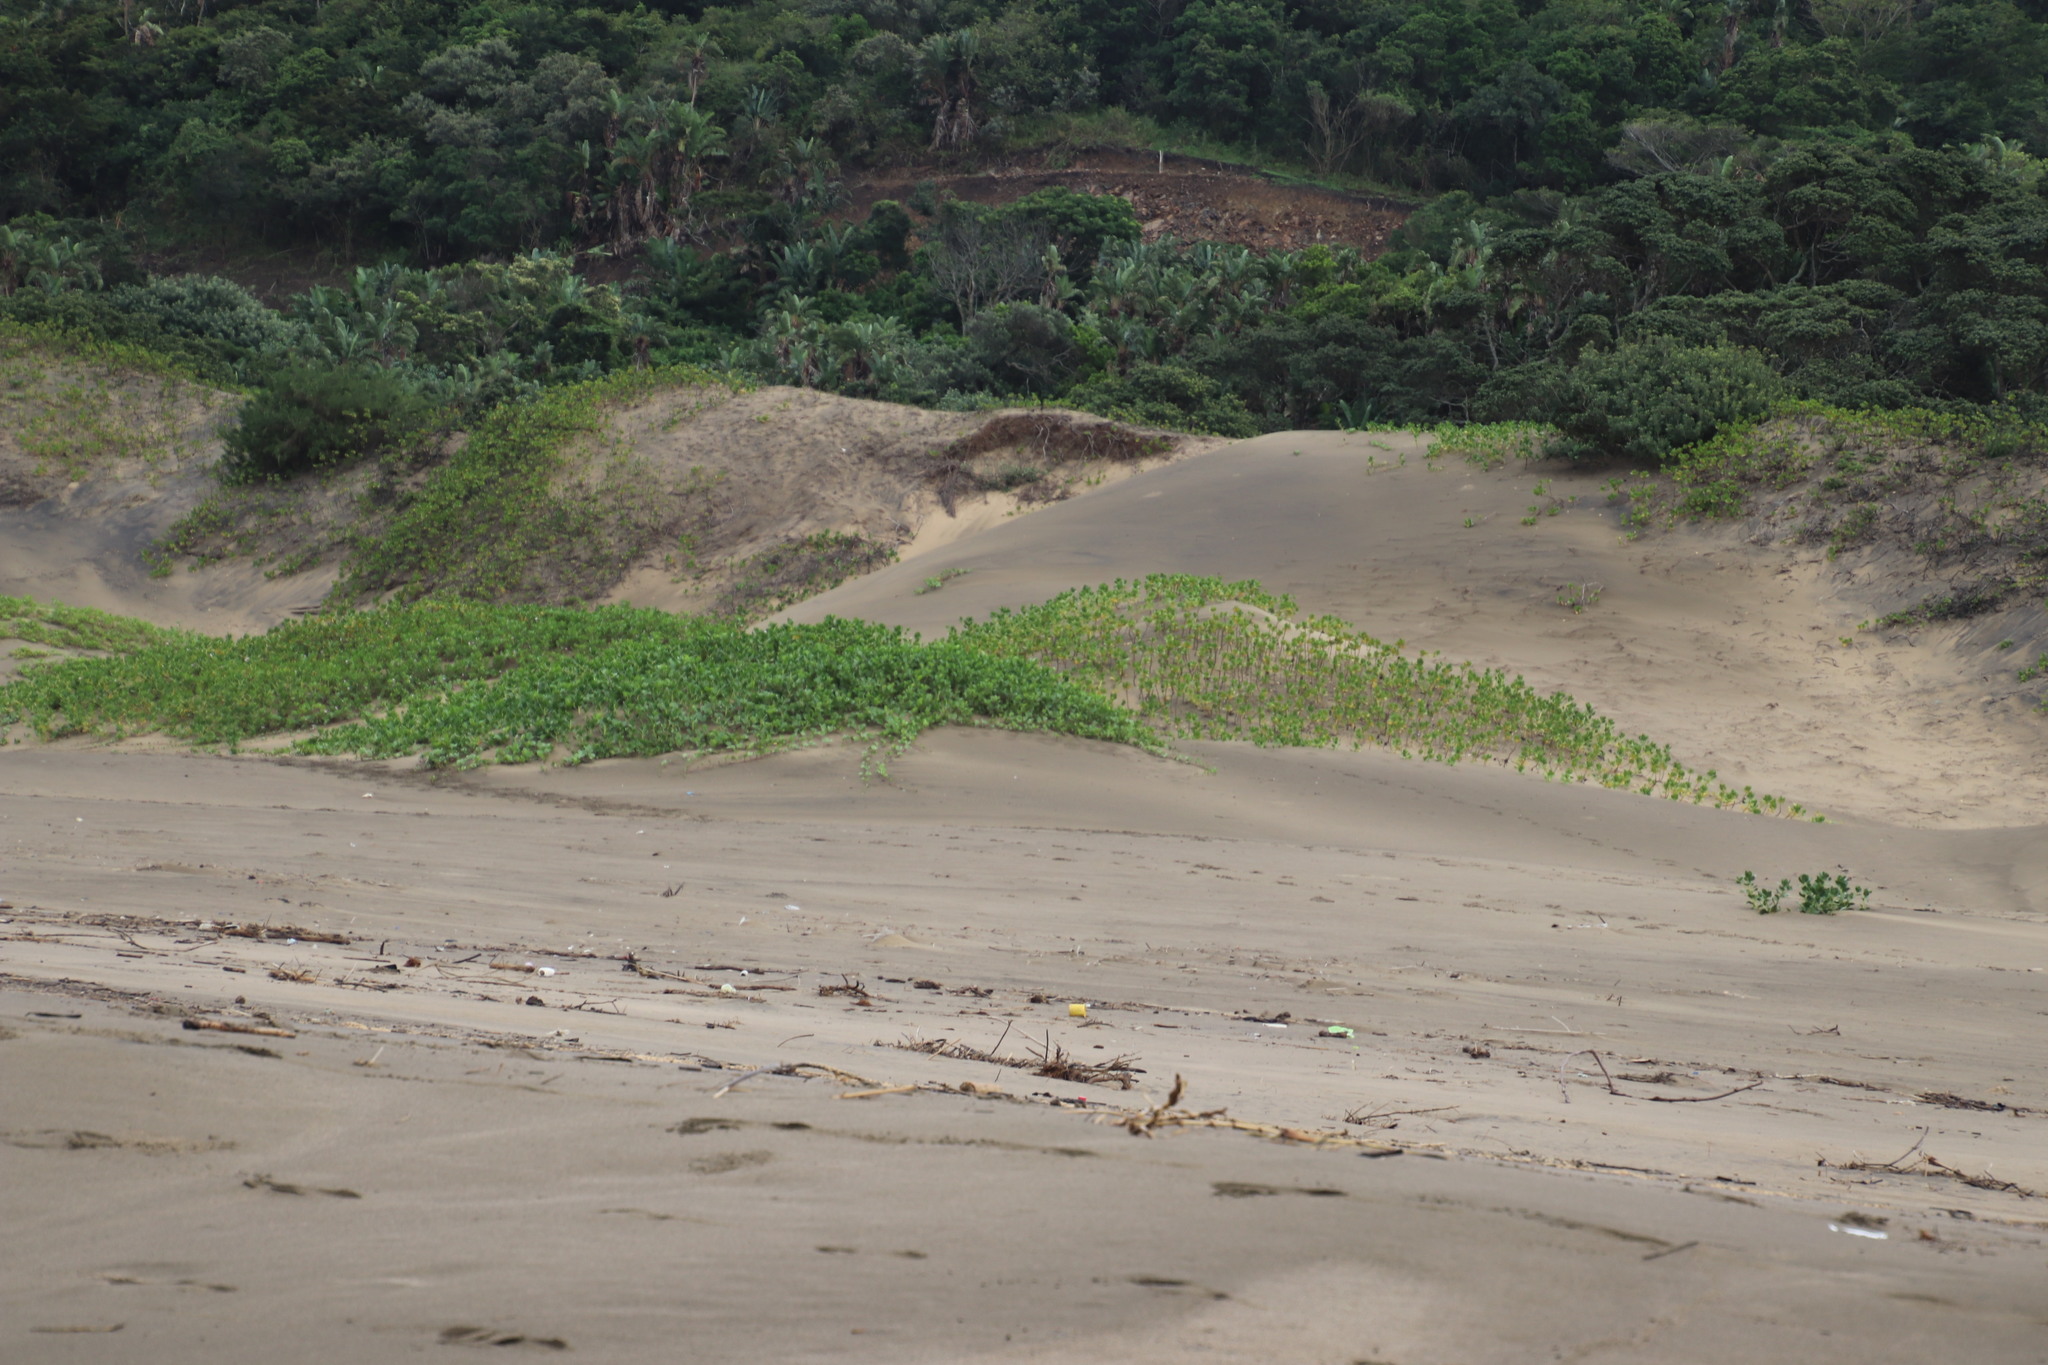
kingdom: Plantae
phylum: Tracheophyta
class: Magnoliopsida
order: Asterales
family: Goodeniaceae
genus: Scaevola
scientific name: Scaevola plumieri
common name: Gull feed
